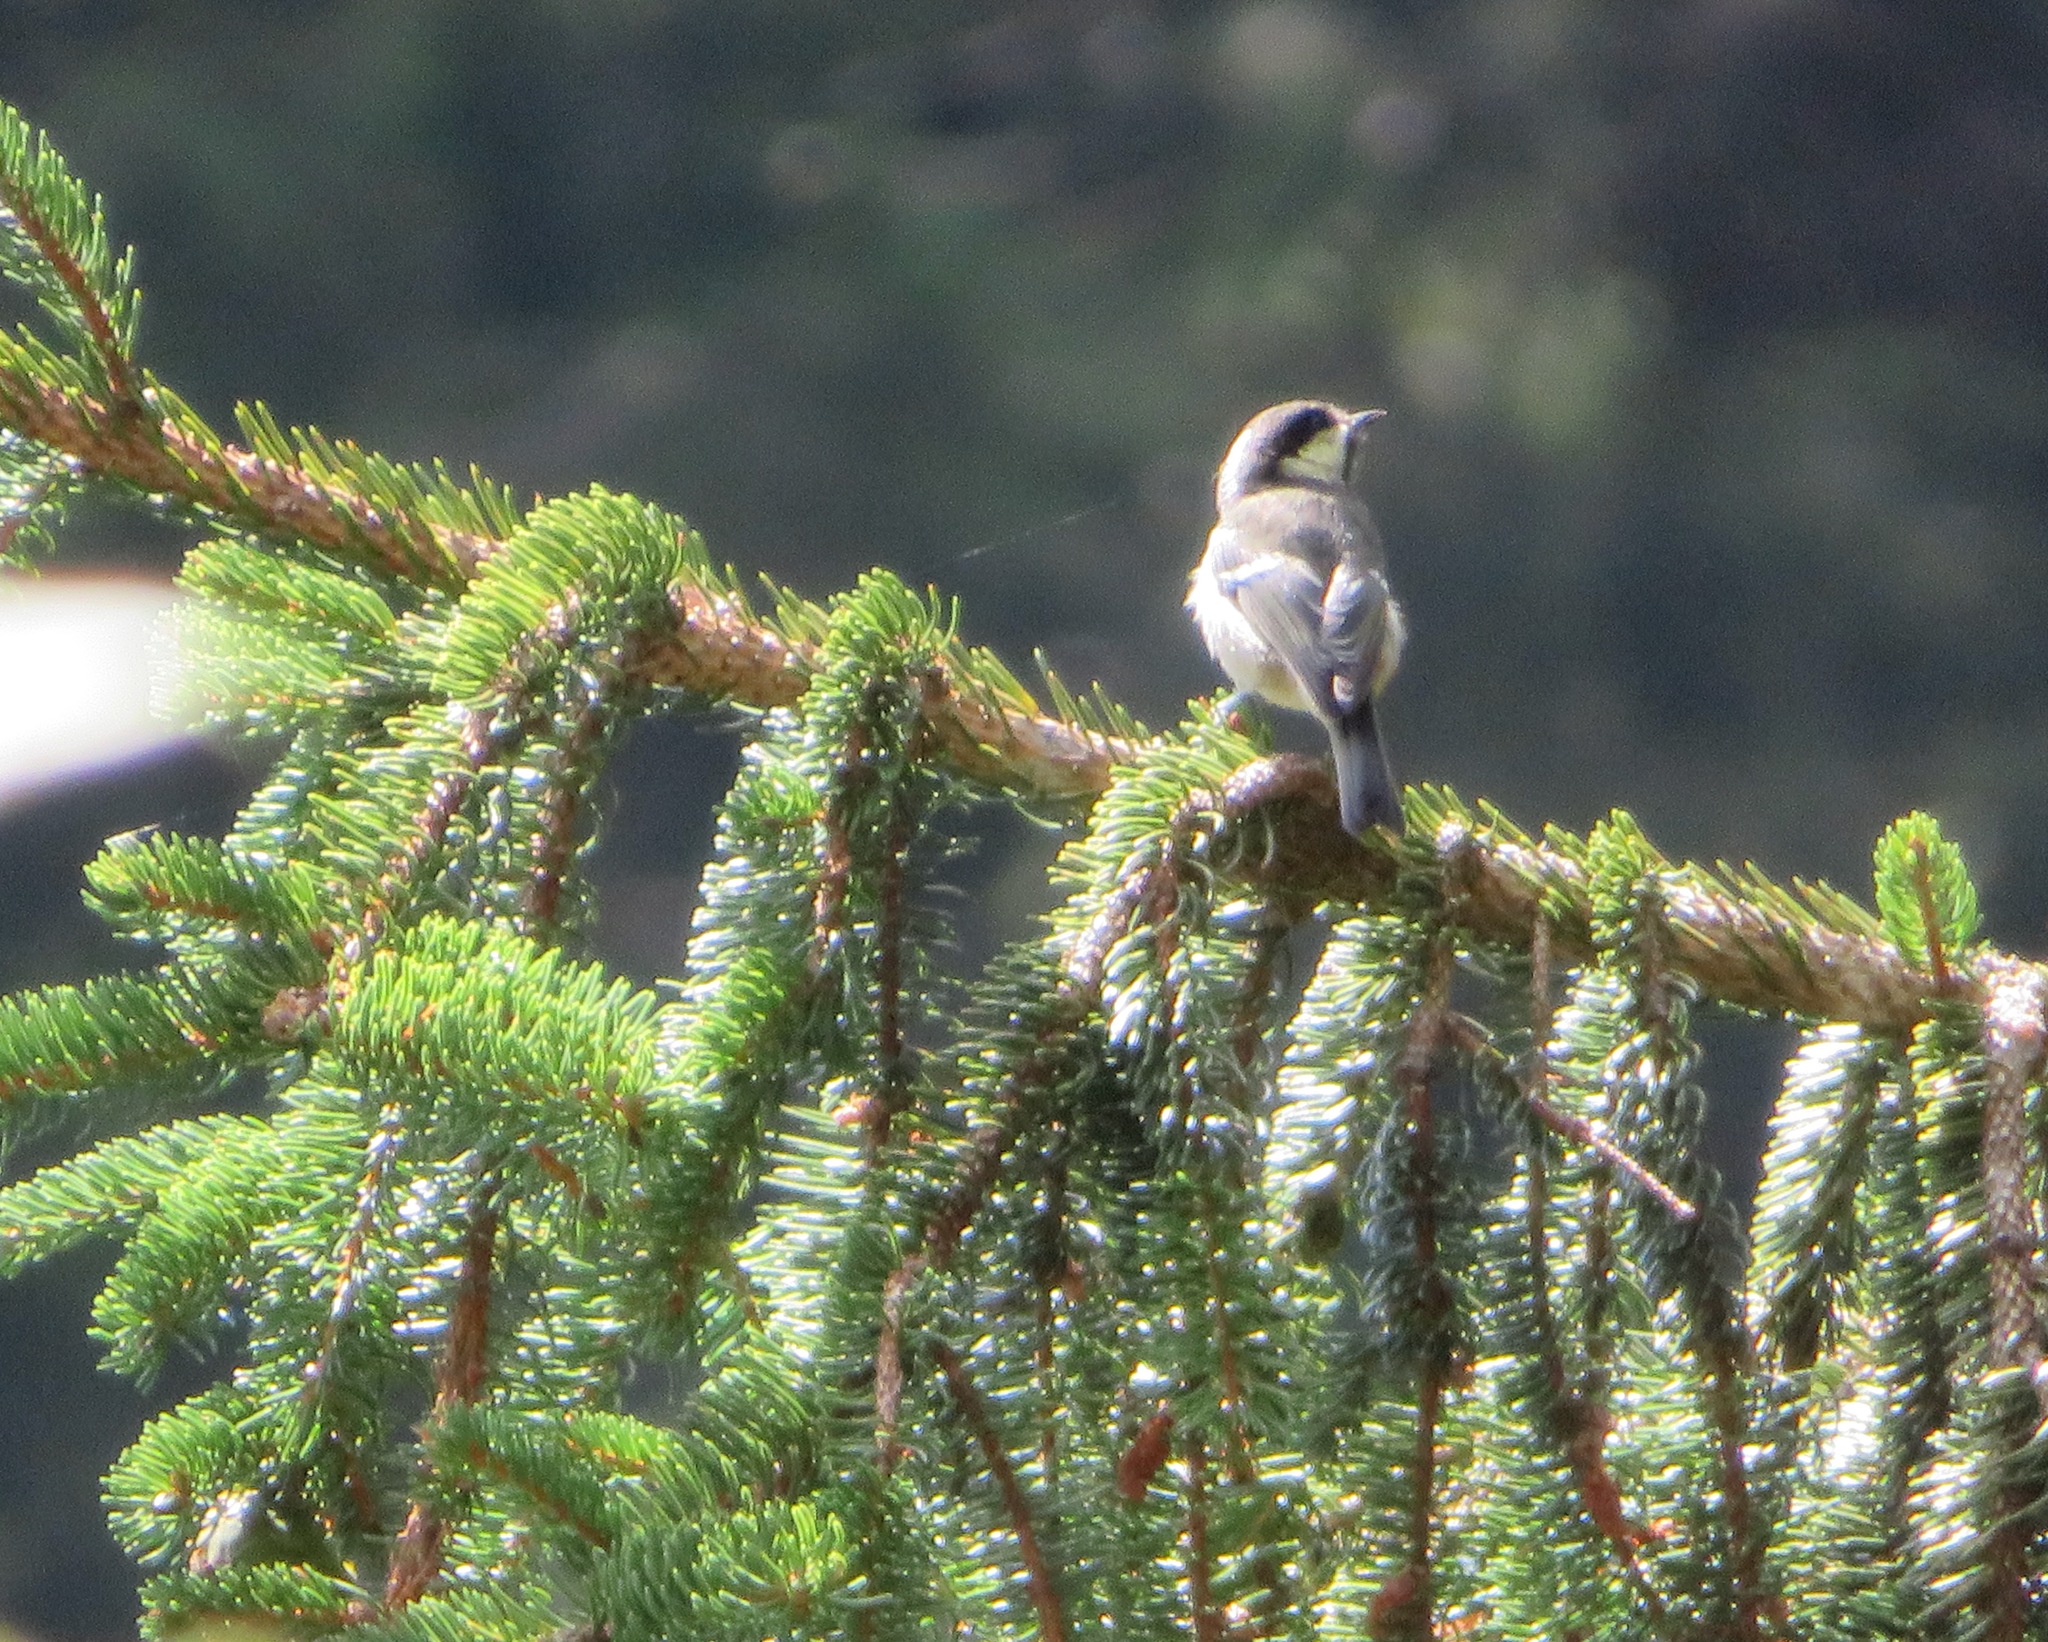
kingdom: Animalia
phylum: Chordata
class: Aves
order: Passeriformes
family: Paridae
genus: Periparus
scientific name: Periparus ater
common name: Coal tit
